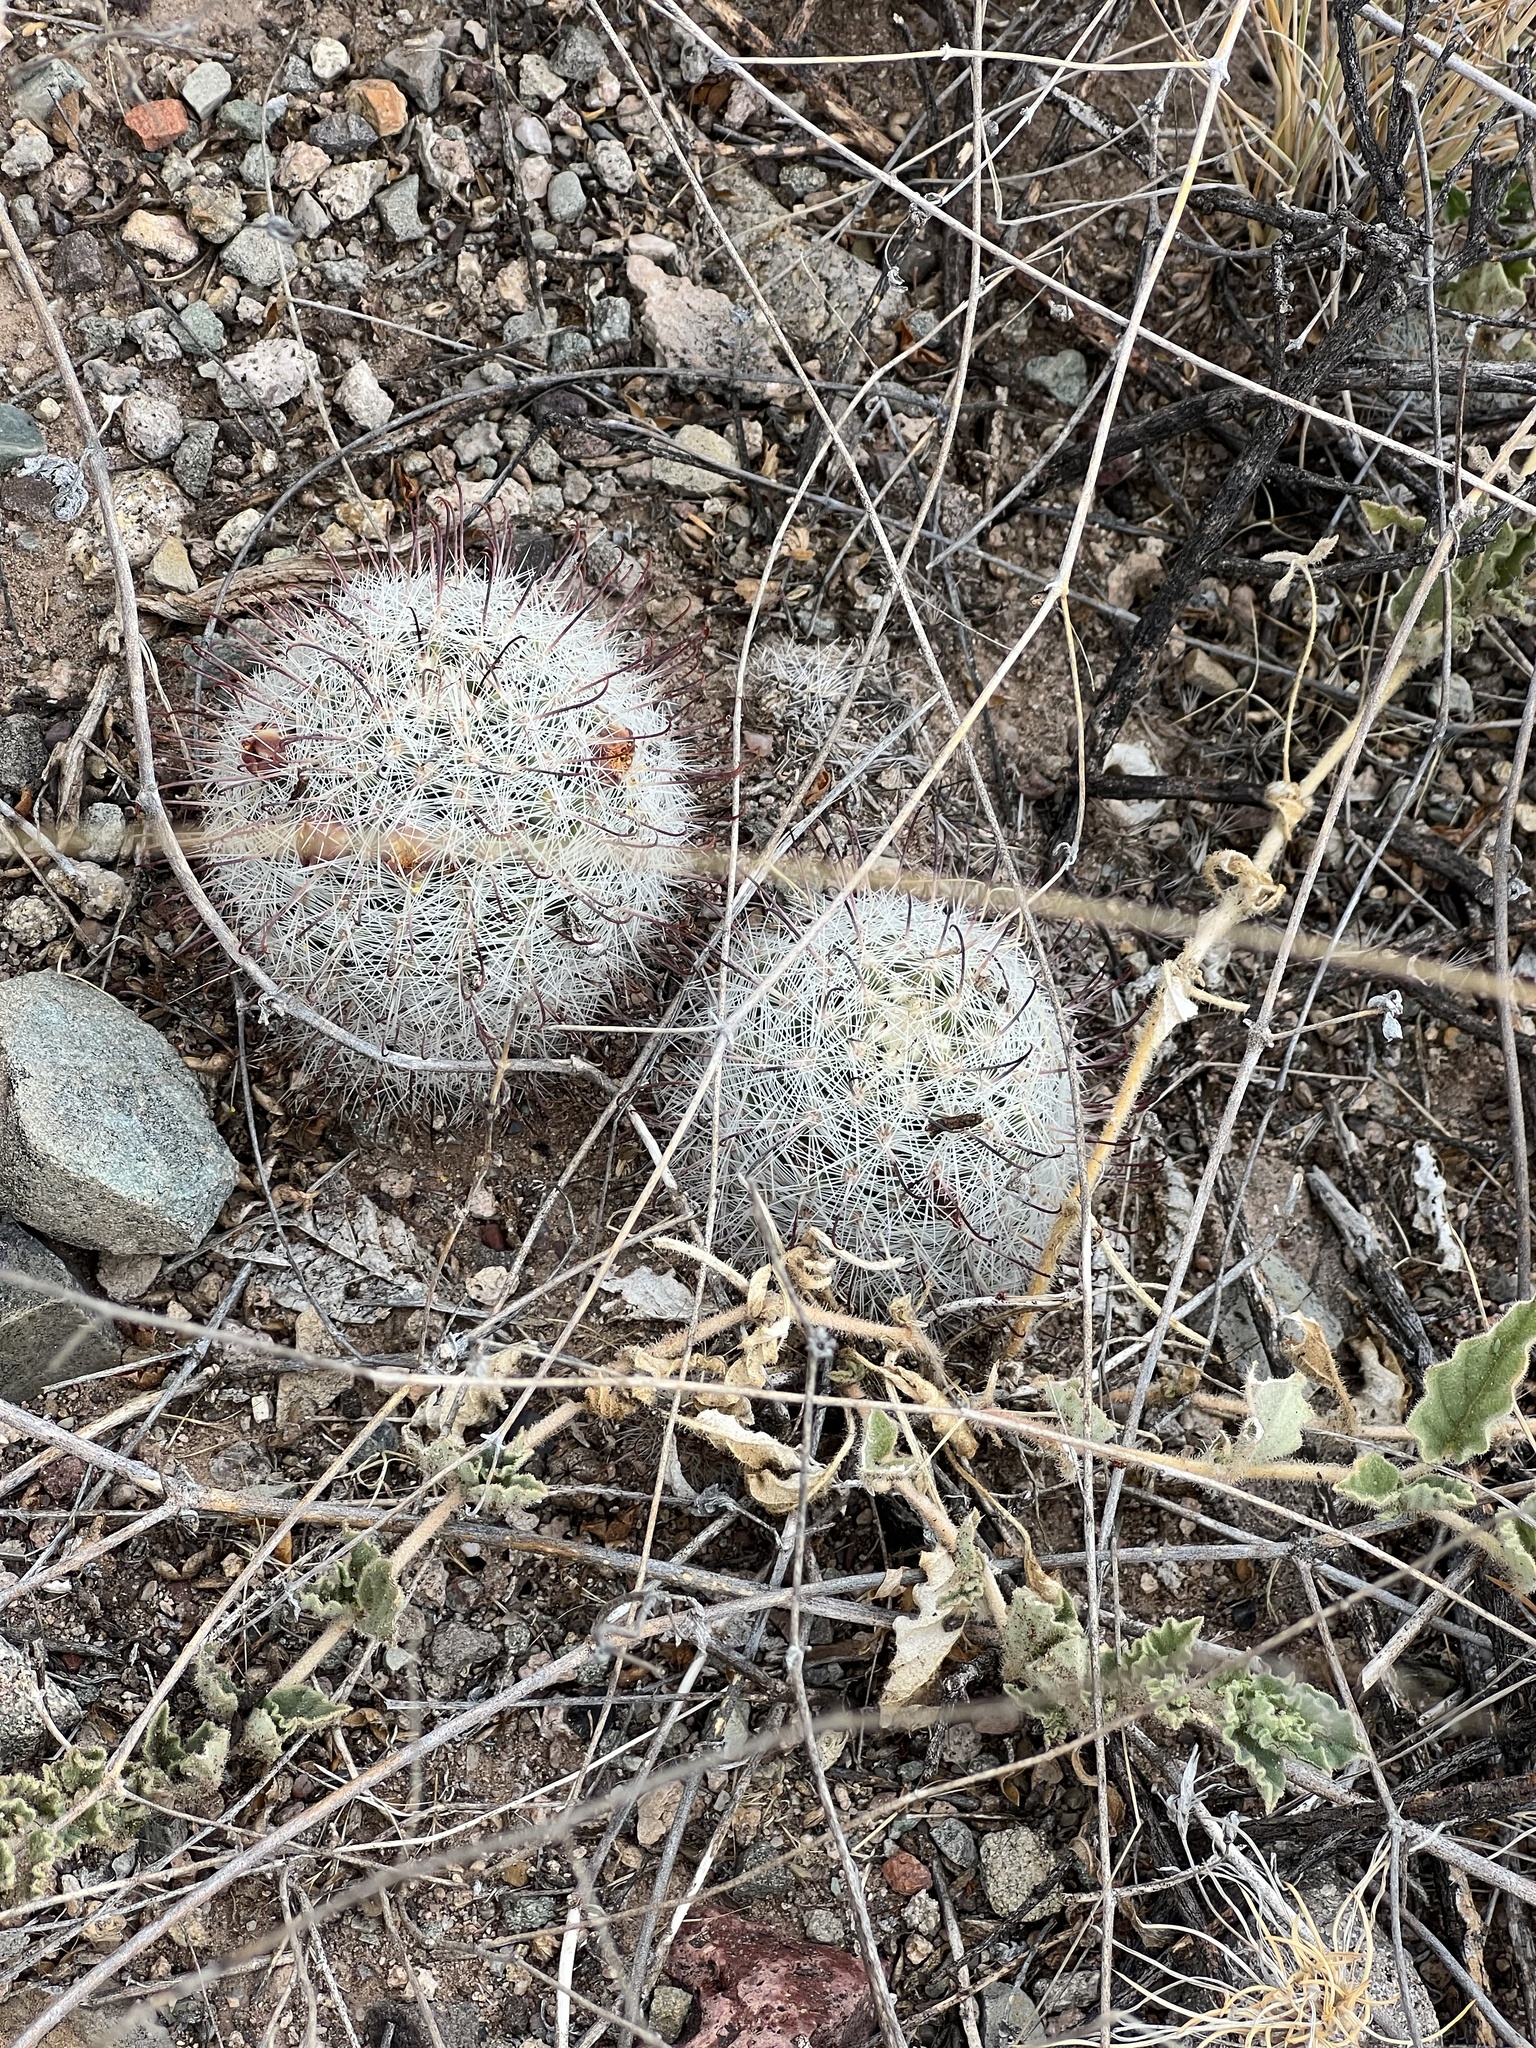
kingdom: Plantae
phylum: Tracheophyta
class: Magnoliopsida
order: Caryophyllales
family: Cactaceae
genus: Cochemiea
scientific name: Cochemiea grahamii
